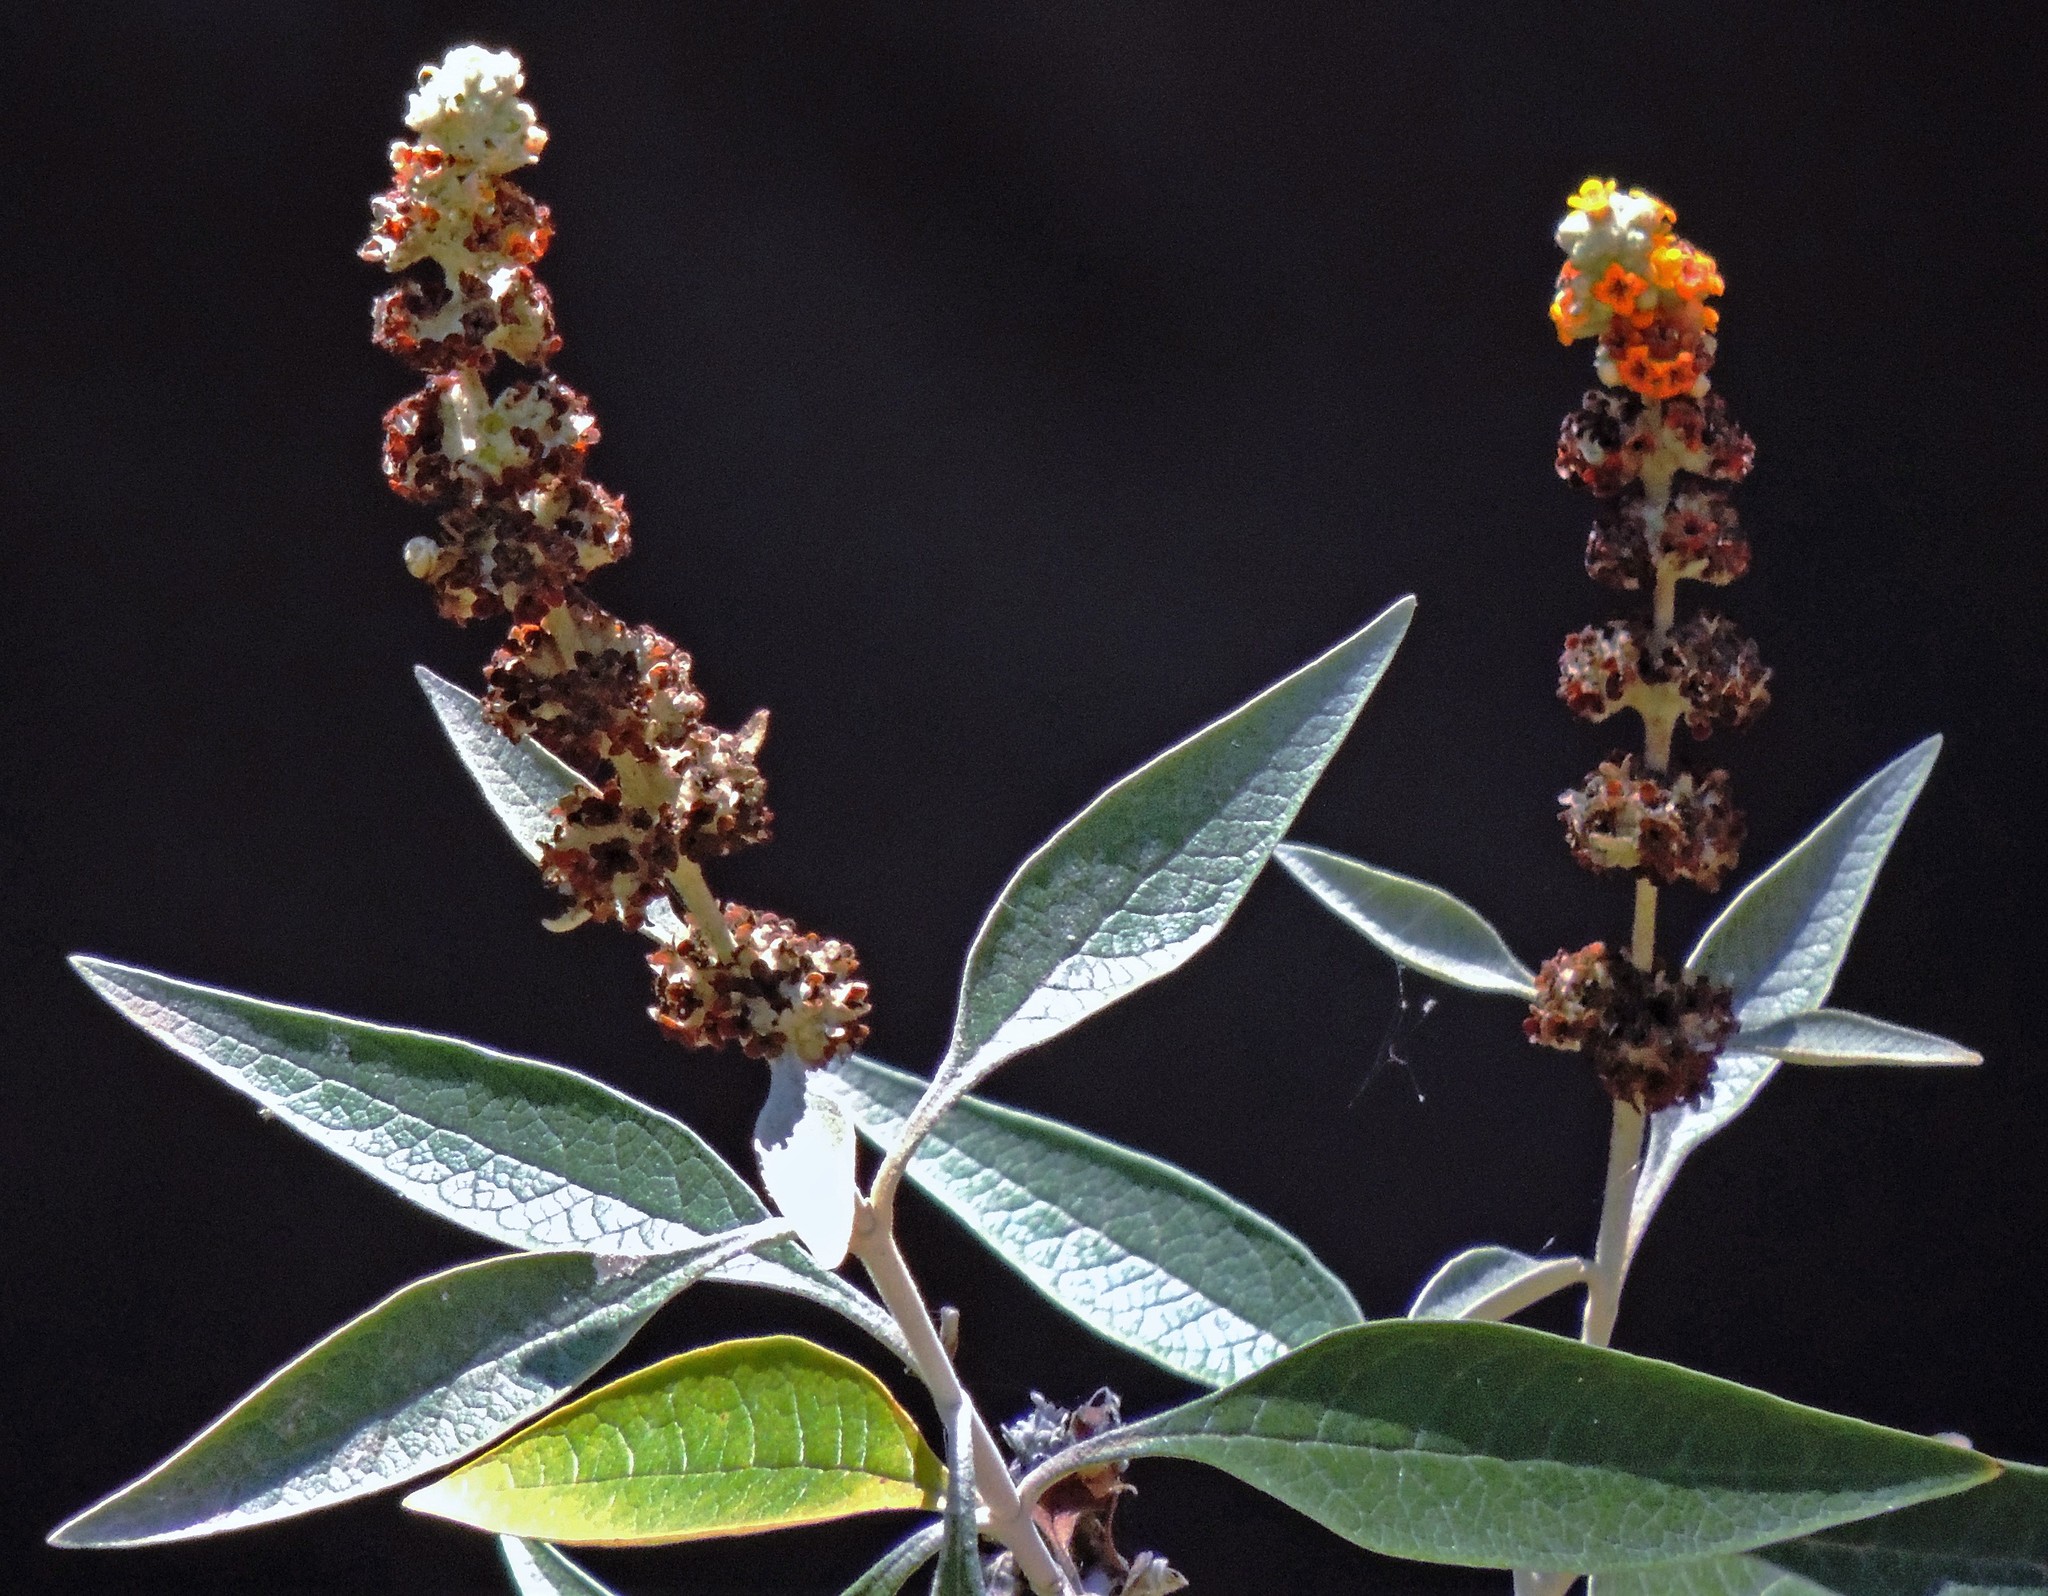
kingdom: Plantae
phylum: Tracheophyta
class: Magnoliopsida
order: Lamiales
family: Scrophulariaceae
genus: Buddleja
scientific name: Buddleja tucumanensis
